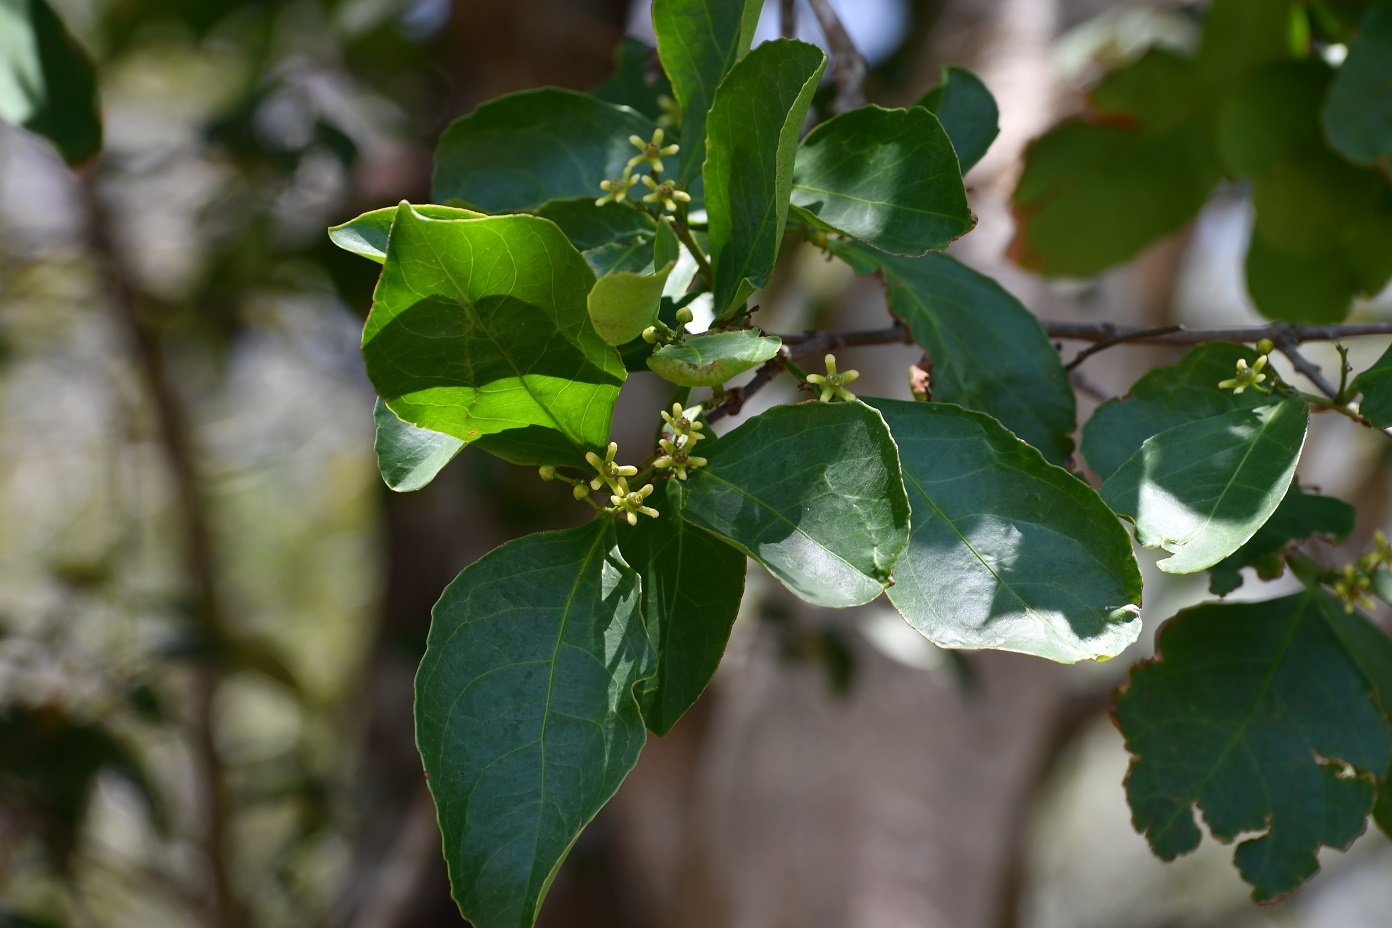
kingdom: Plantae
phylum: Tracheophyta
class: Magnoliopsida
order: Celastrales
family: Celastraceae
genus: Semialarium
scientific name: Semialarium mexicanum
